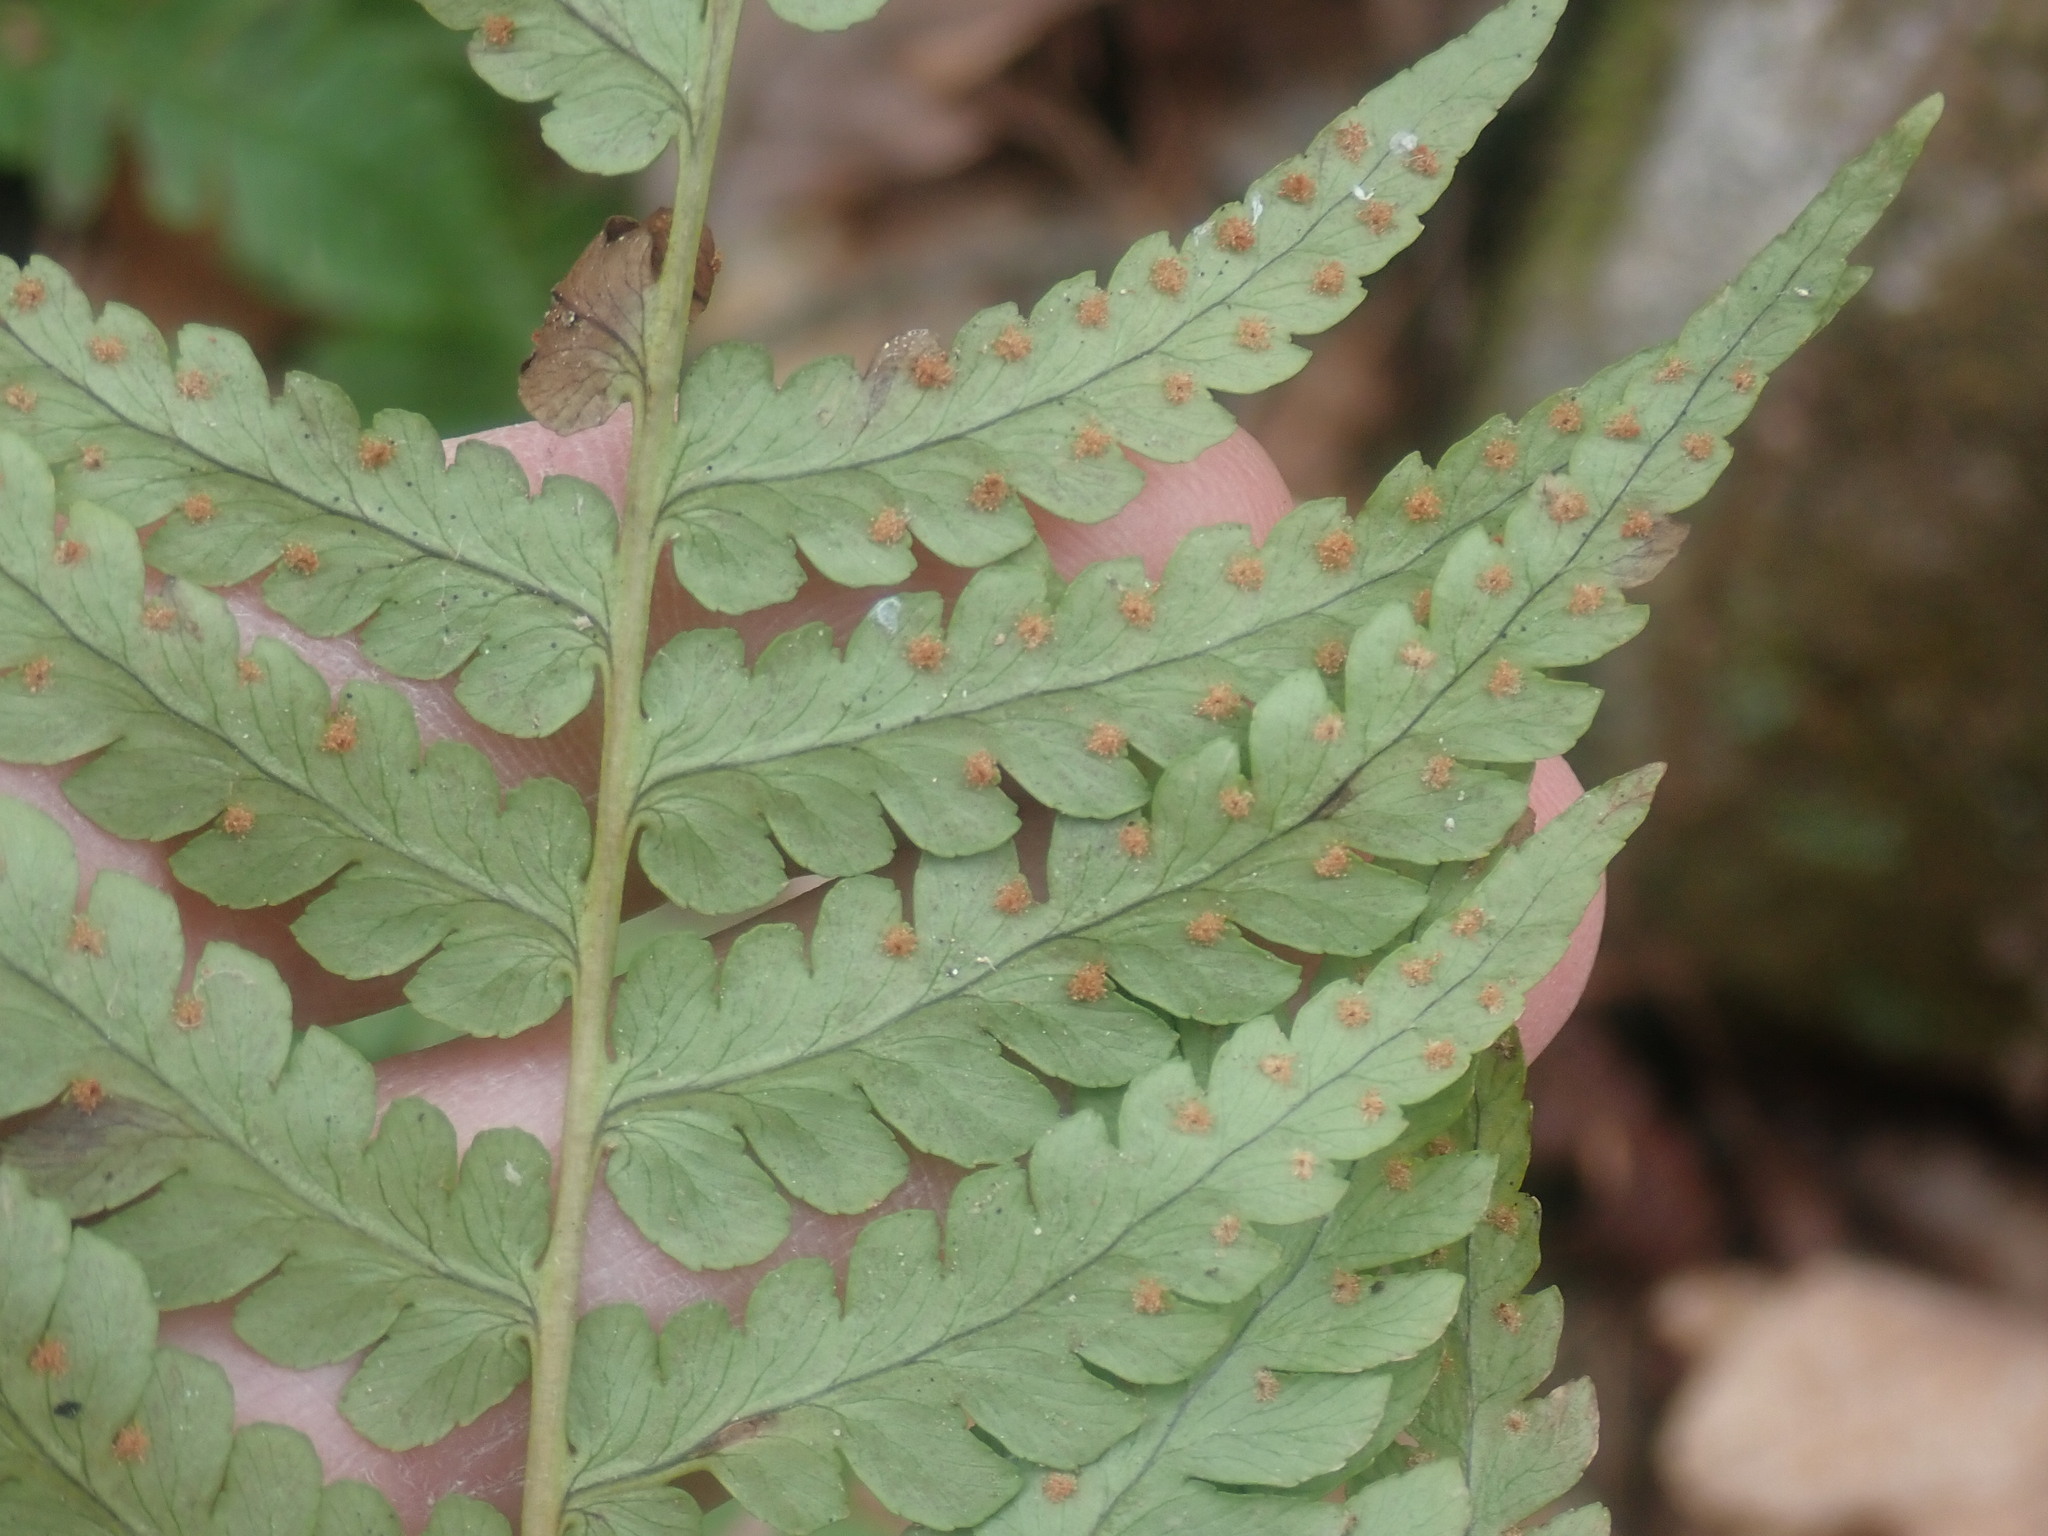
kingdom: Plantae
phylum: Tracheophyta
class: Polypodiopsida
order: Polypodiales
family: Dryopteridaceae
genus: Dryopteris
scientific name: Dryopteris marginalis
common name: Marginal wood fern
